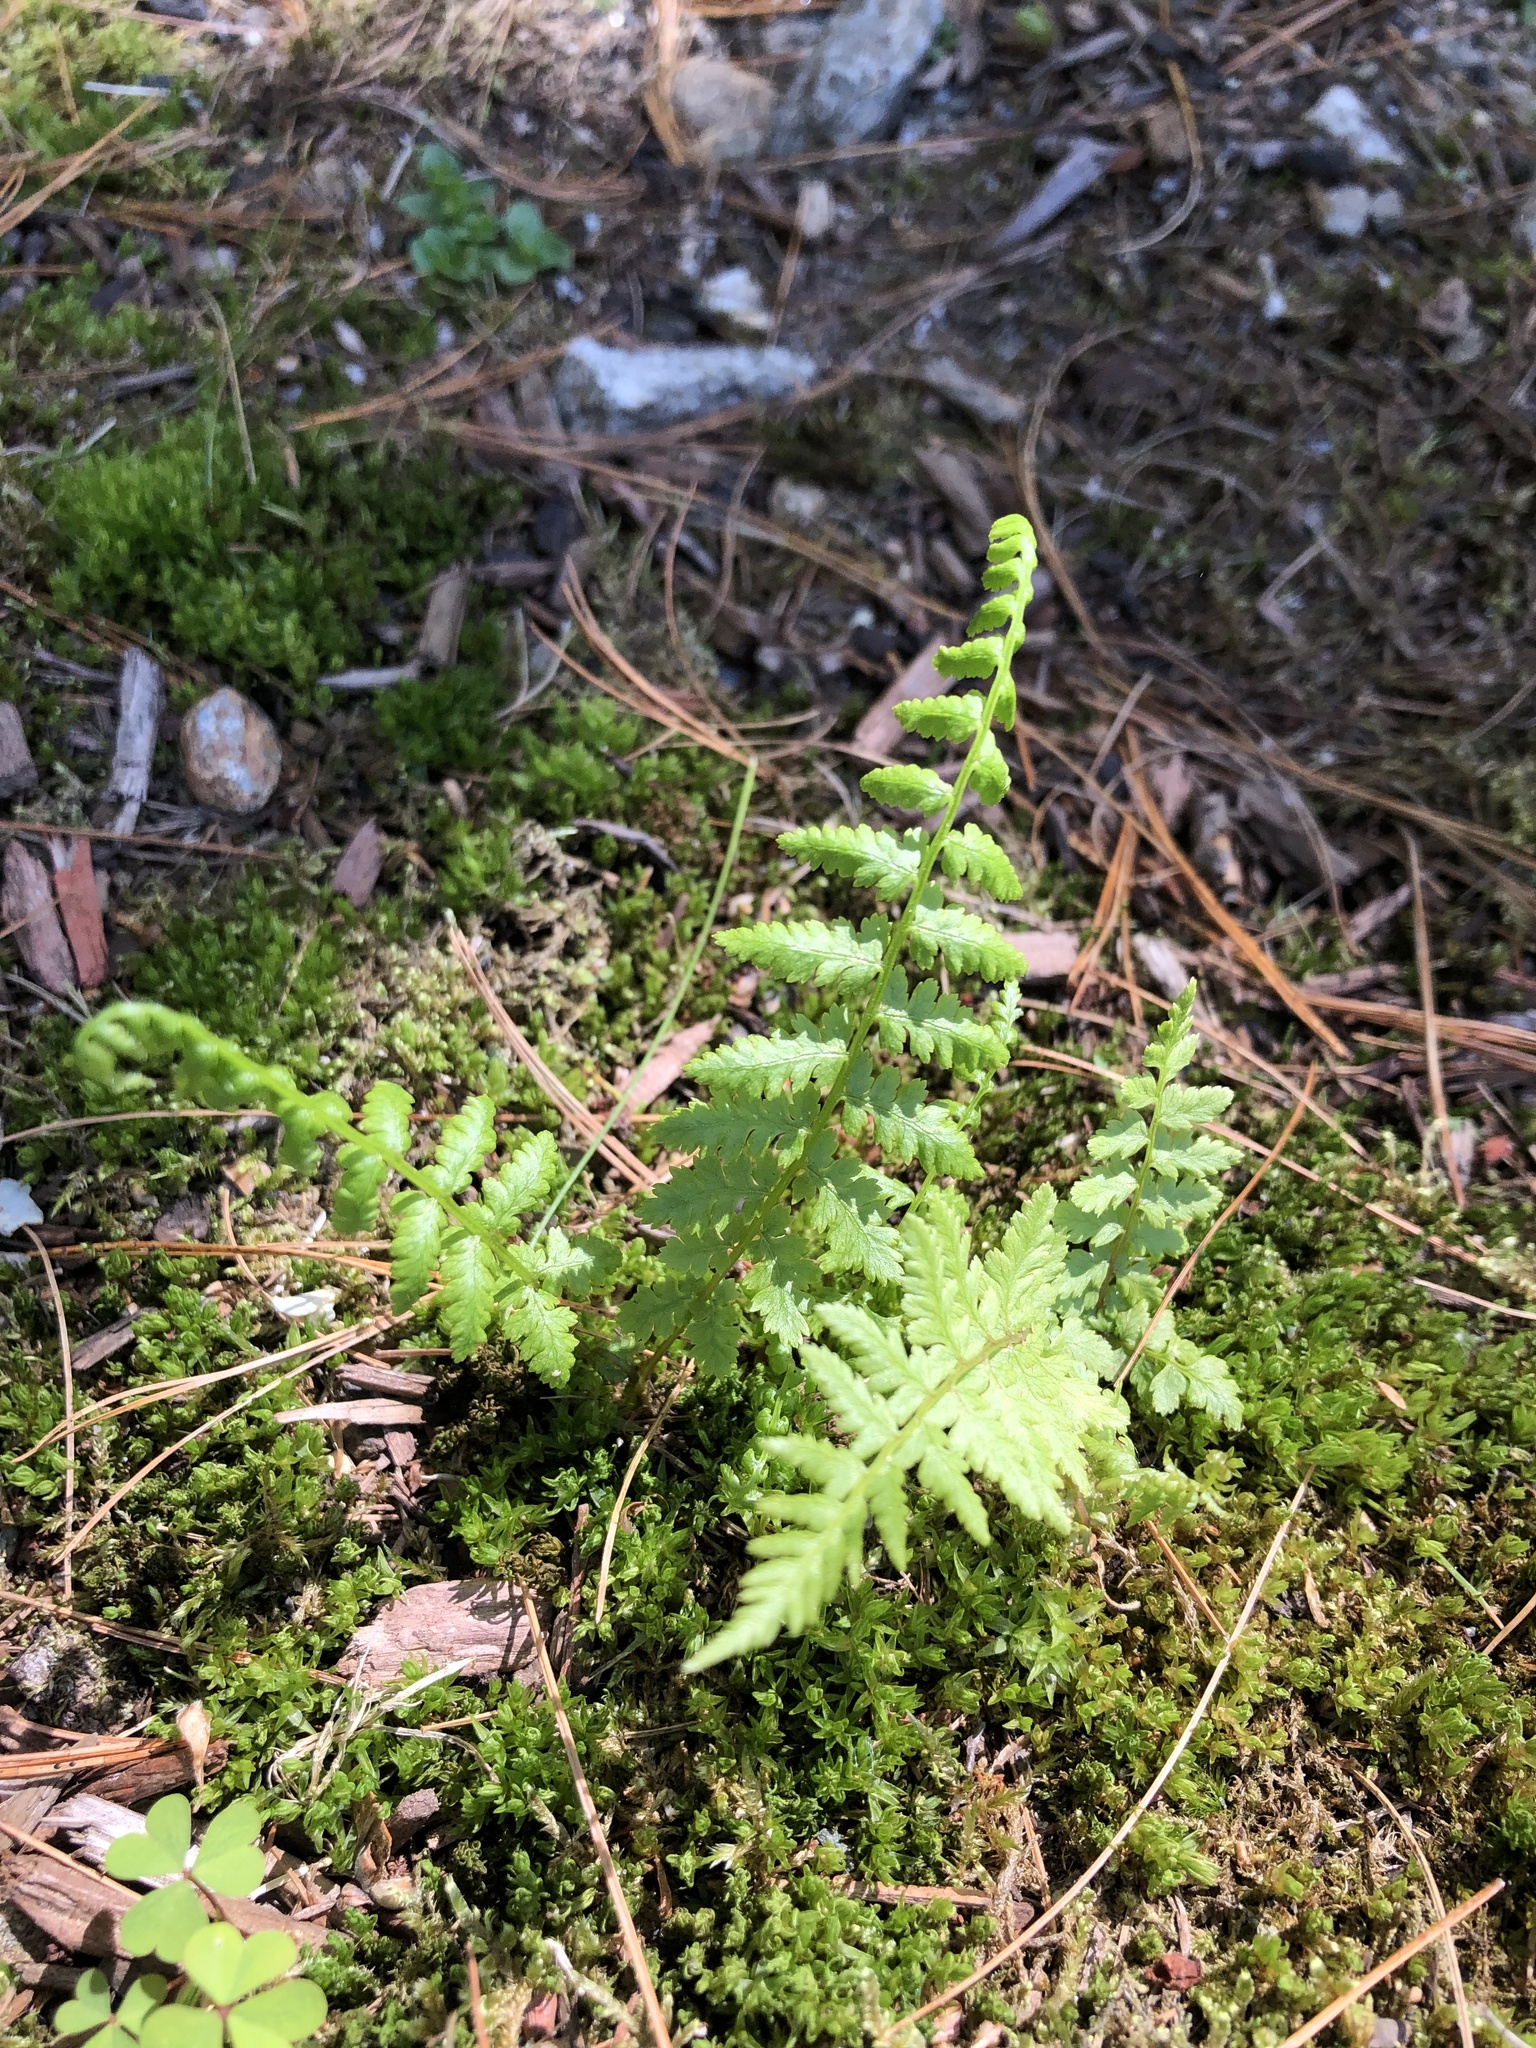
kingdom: Plantae
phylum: Tracheophyta
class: Polypodiopsida
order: Polypodiales
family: Athyriaceae
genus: Athyrium
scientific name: Athyrium angustum
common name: Northern lady fern
